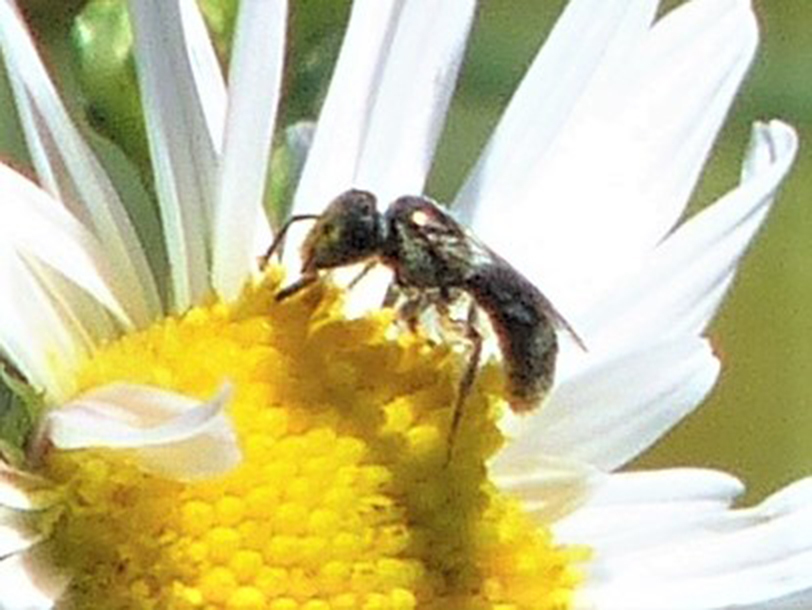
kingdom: Animalia
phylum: Arthropoda
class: Insecta
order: Hymenoptera
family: Halictidae
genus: Dialictus
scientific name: Dialictus
